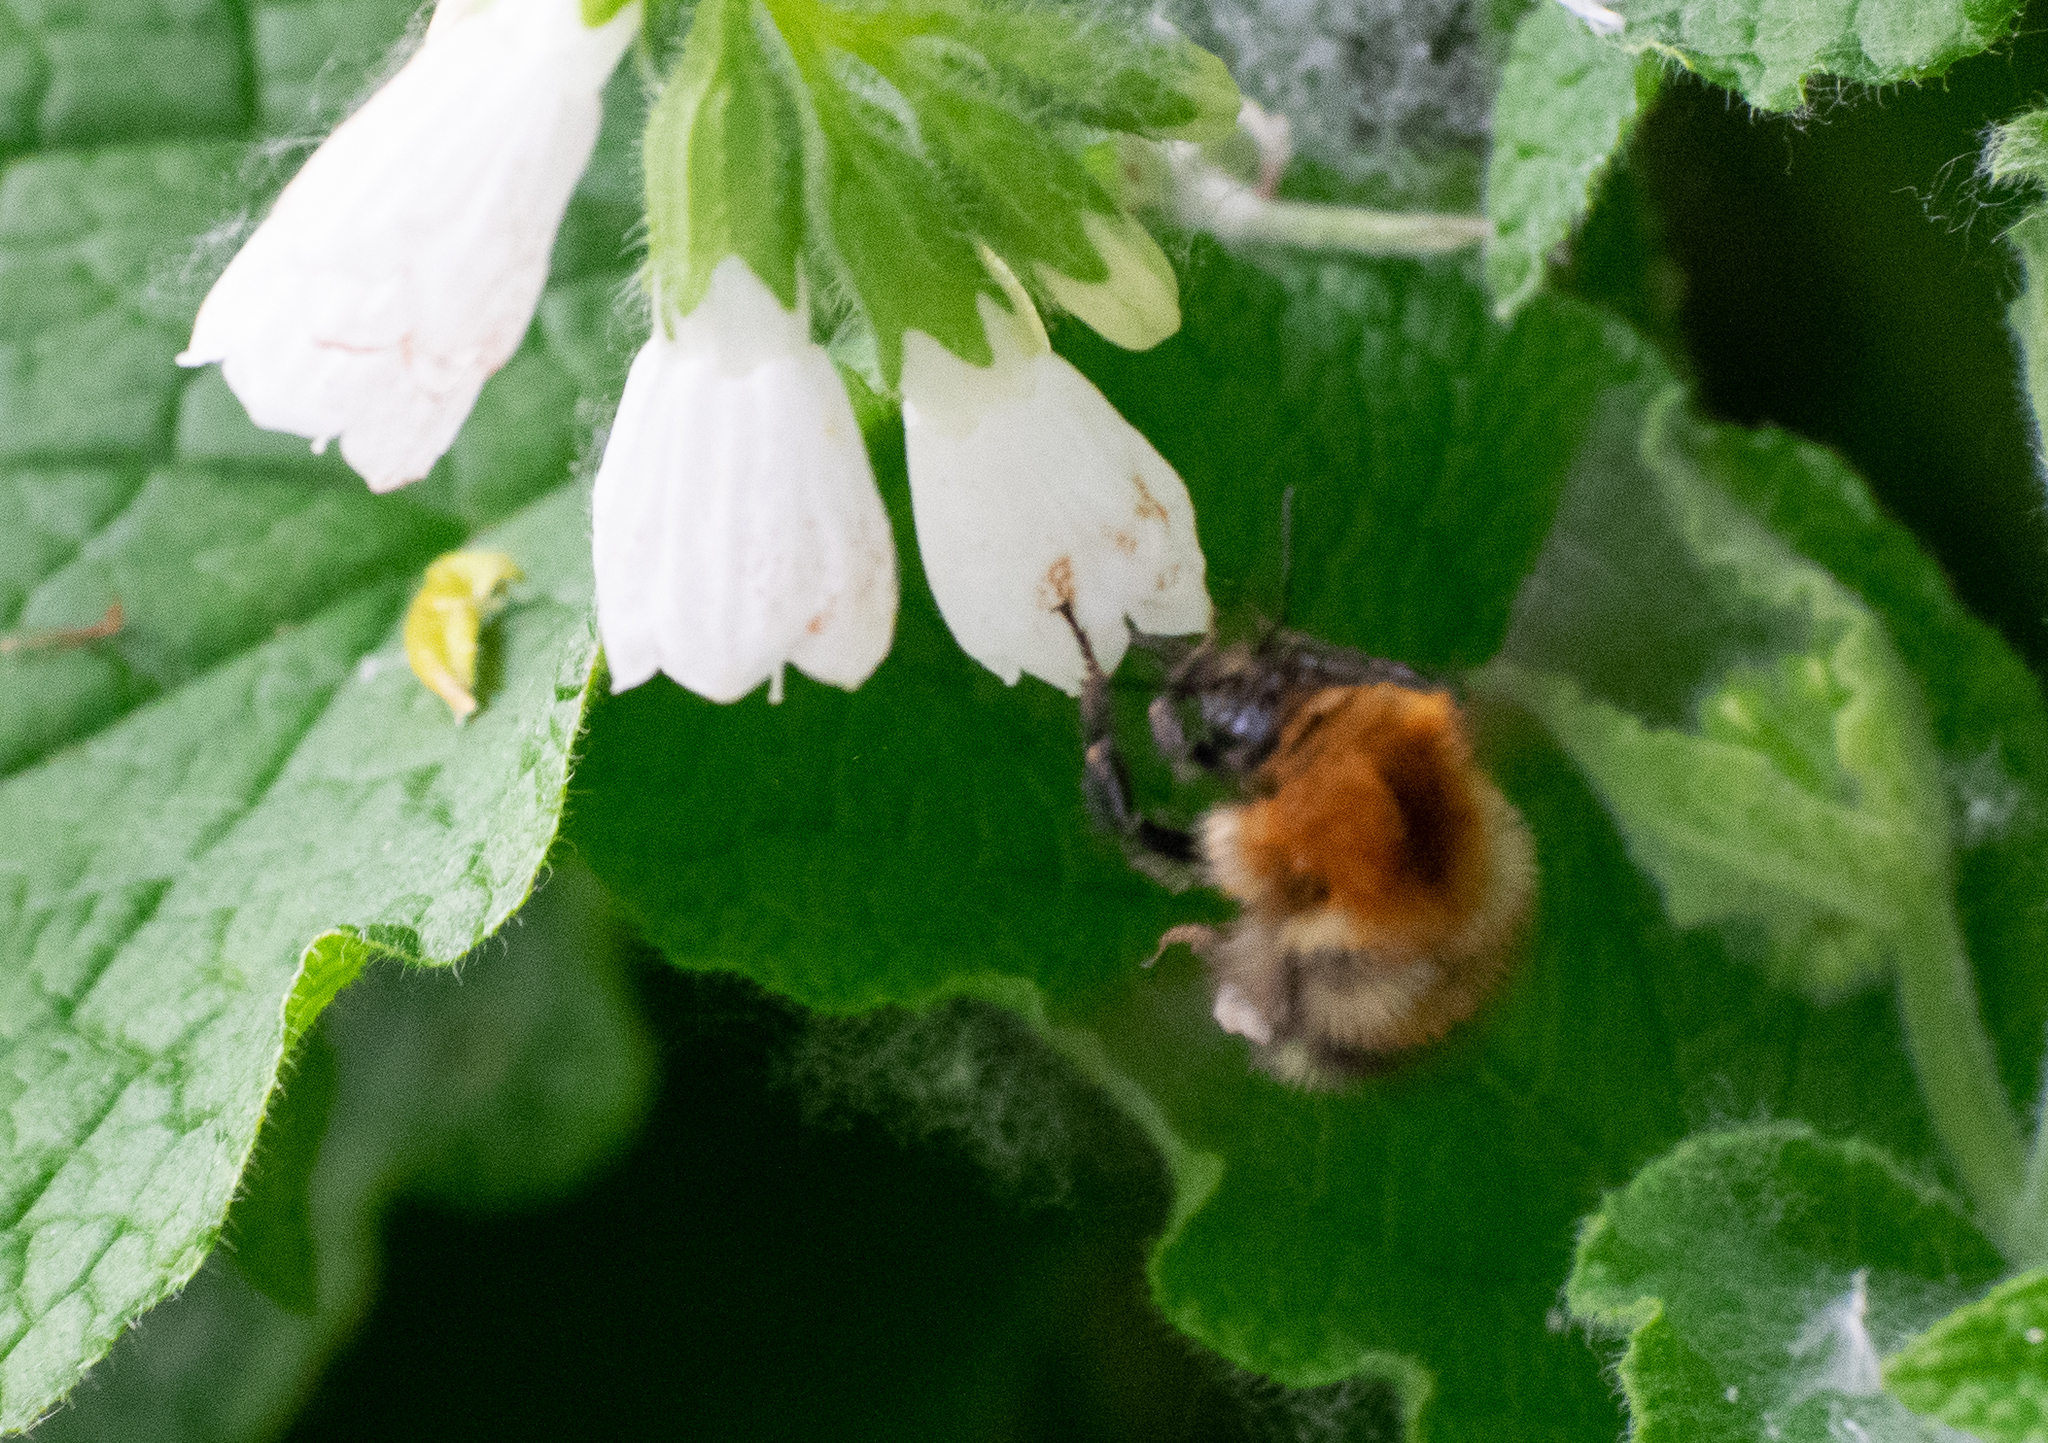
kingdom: Animalia
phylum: Arthropoda
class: Insecta
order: Hymenoptera
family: Apidae
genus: Bombus
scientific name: Bombus pascuorum
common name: Common carder bee
